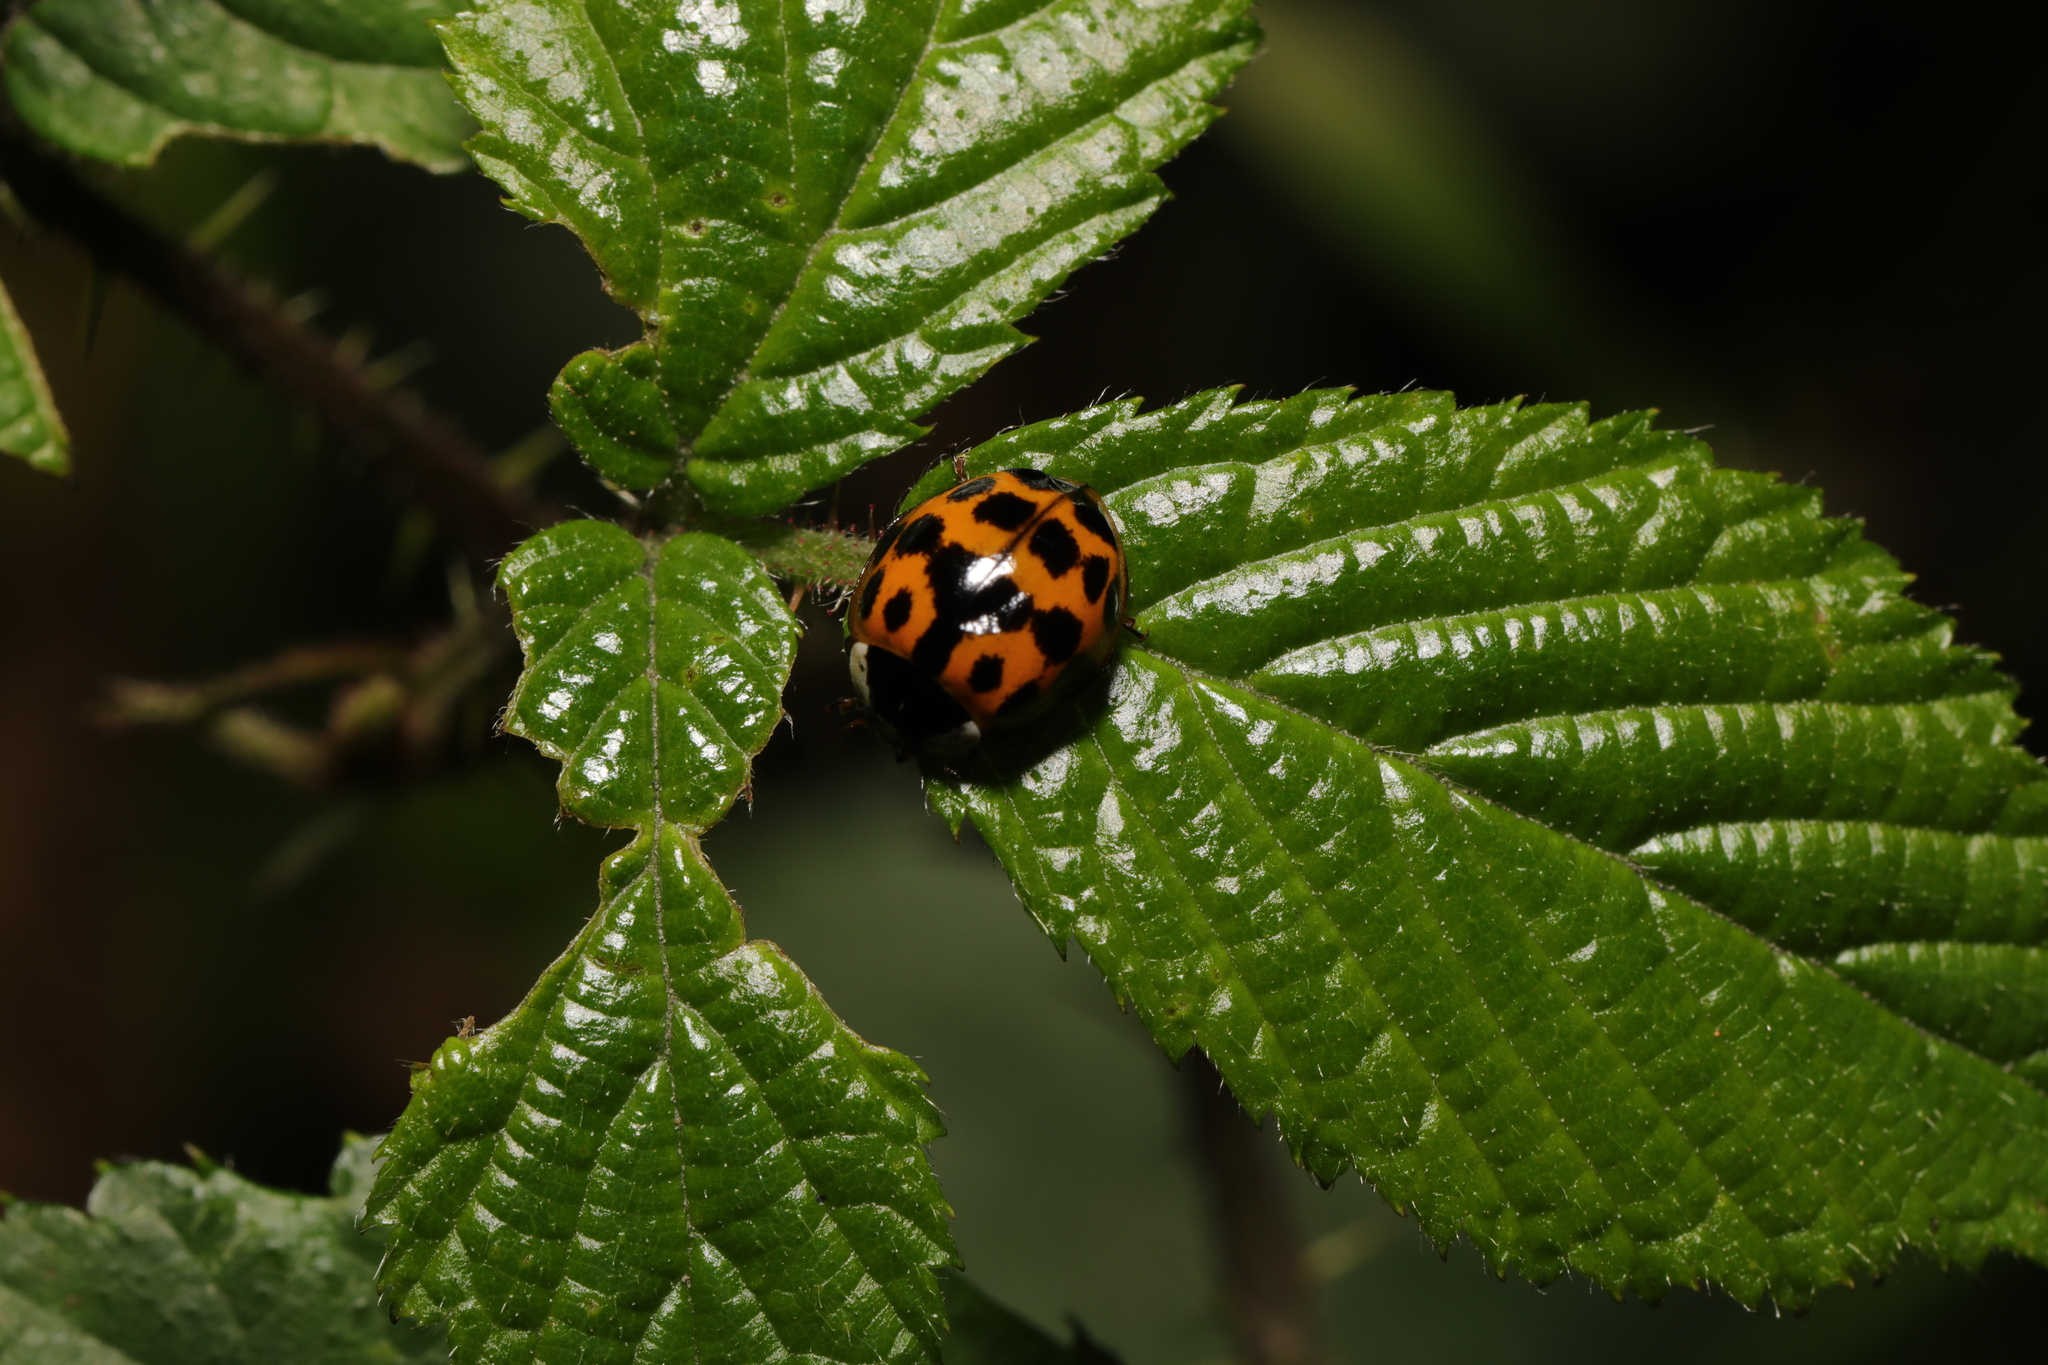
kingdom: Animalia
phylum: Arthropoda
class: Insecta
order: Coleoptera
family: Coccinellidae
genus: Harmonia
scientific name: Harmonia axyridis
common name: Harlequin ladybird
